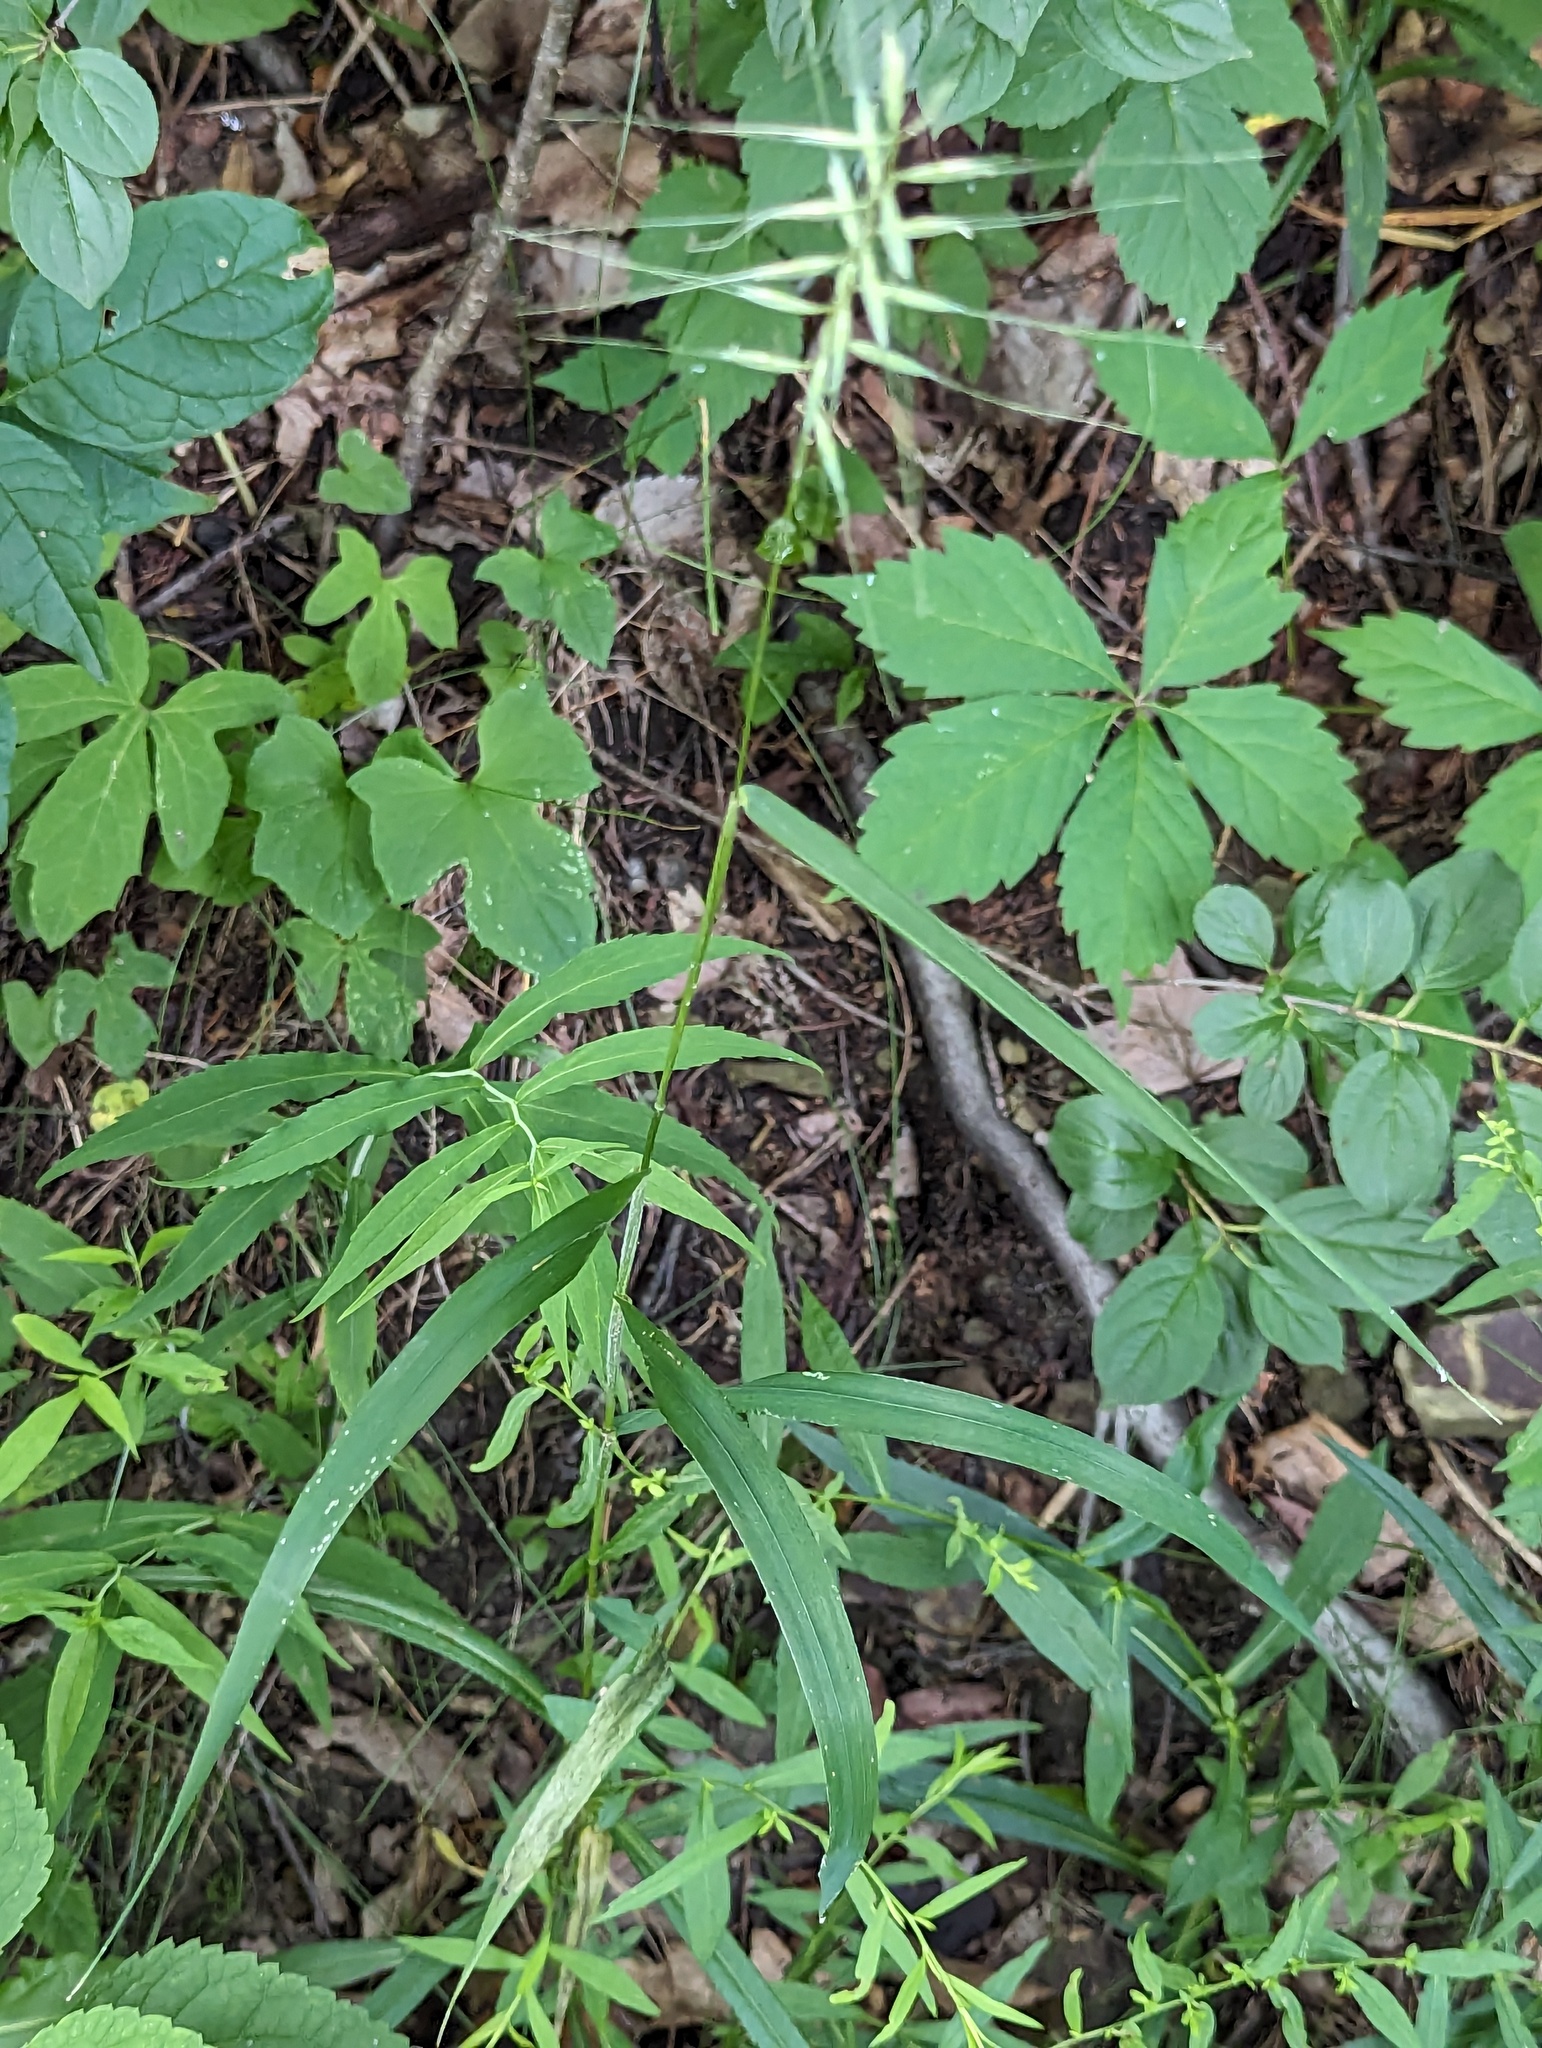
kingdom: Plantae
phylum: Tracheophyta
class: Liliopsida
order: Poales
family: Poaceae
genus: Elymus
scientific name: Elymus hystrix
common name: Bottlebrush grass
